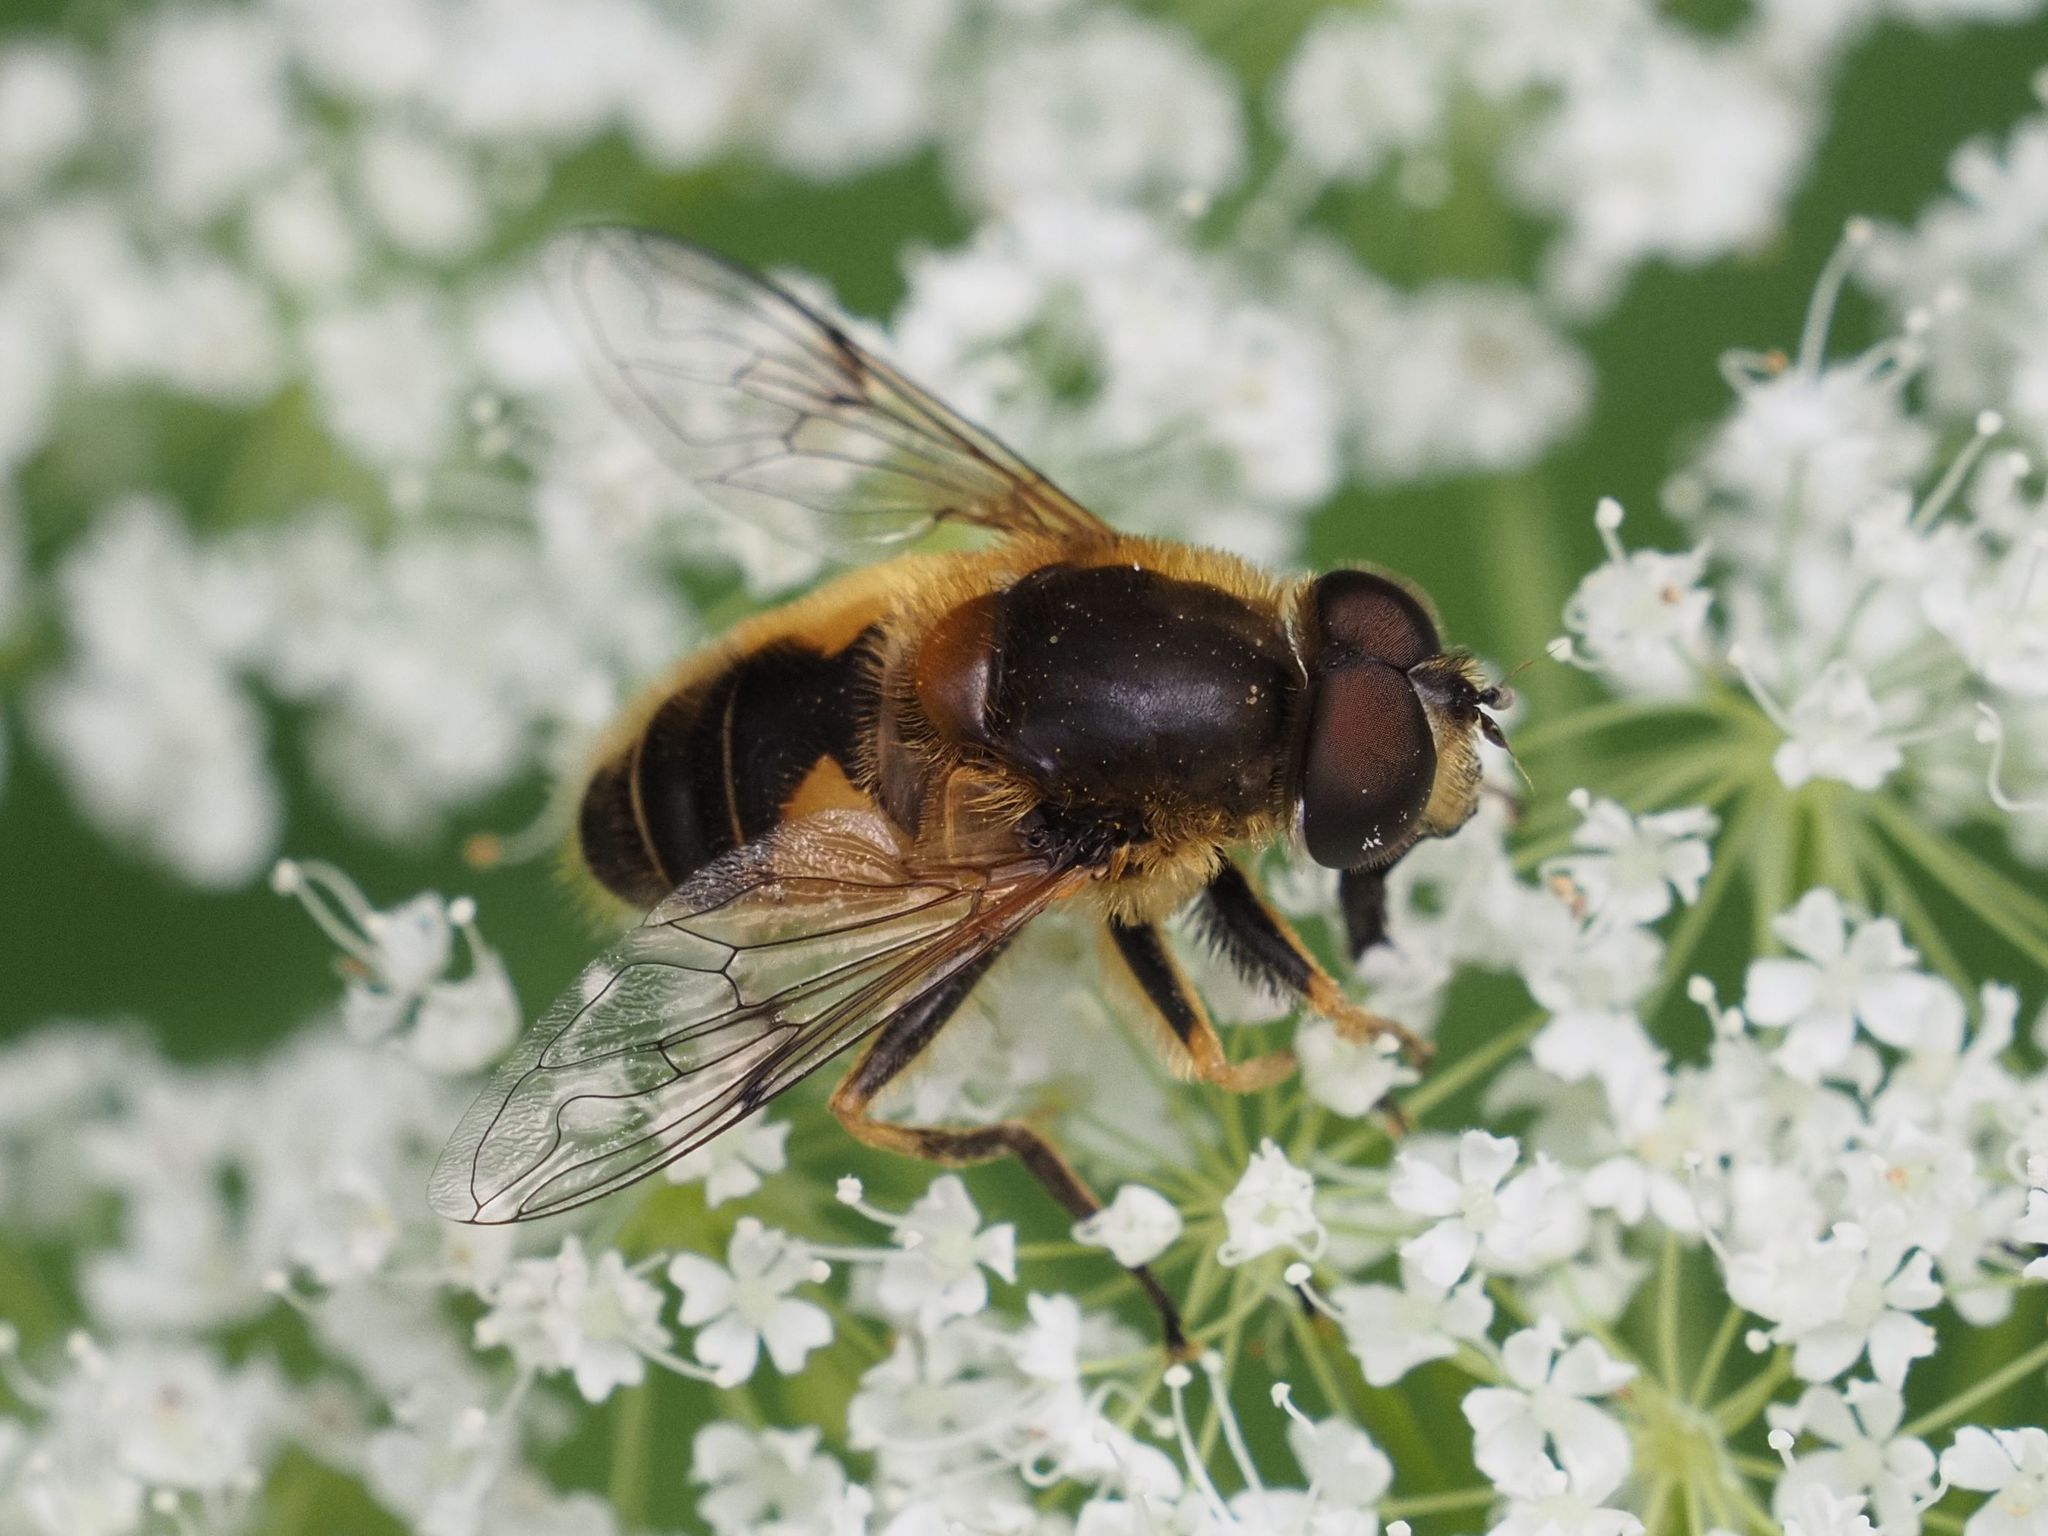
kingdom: Animalia
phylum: Arthropoda
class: Insecta
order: Diptera
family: Syrphidae
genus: Eristalis
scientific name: Eristalis jugorum
